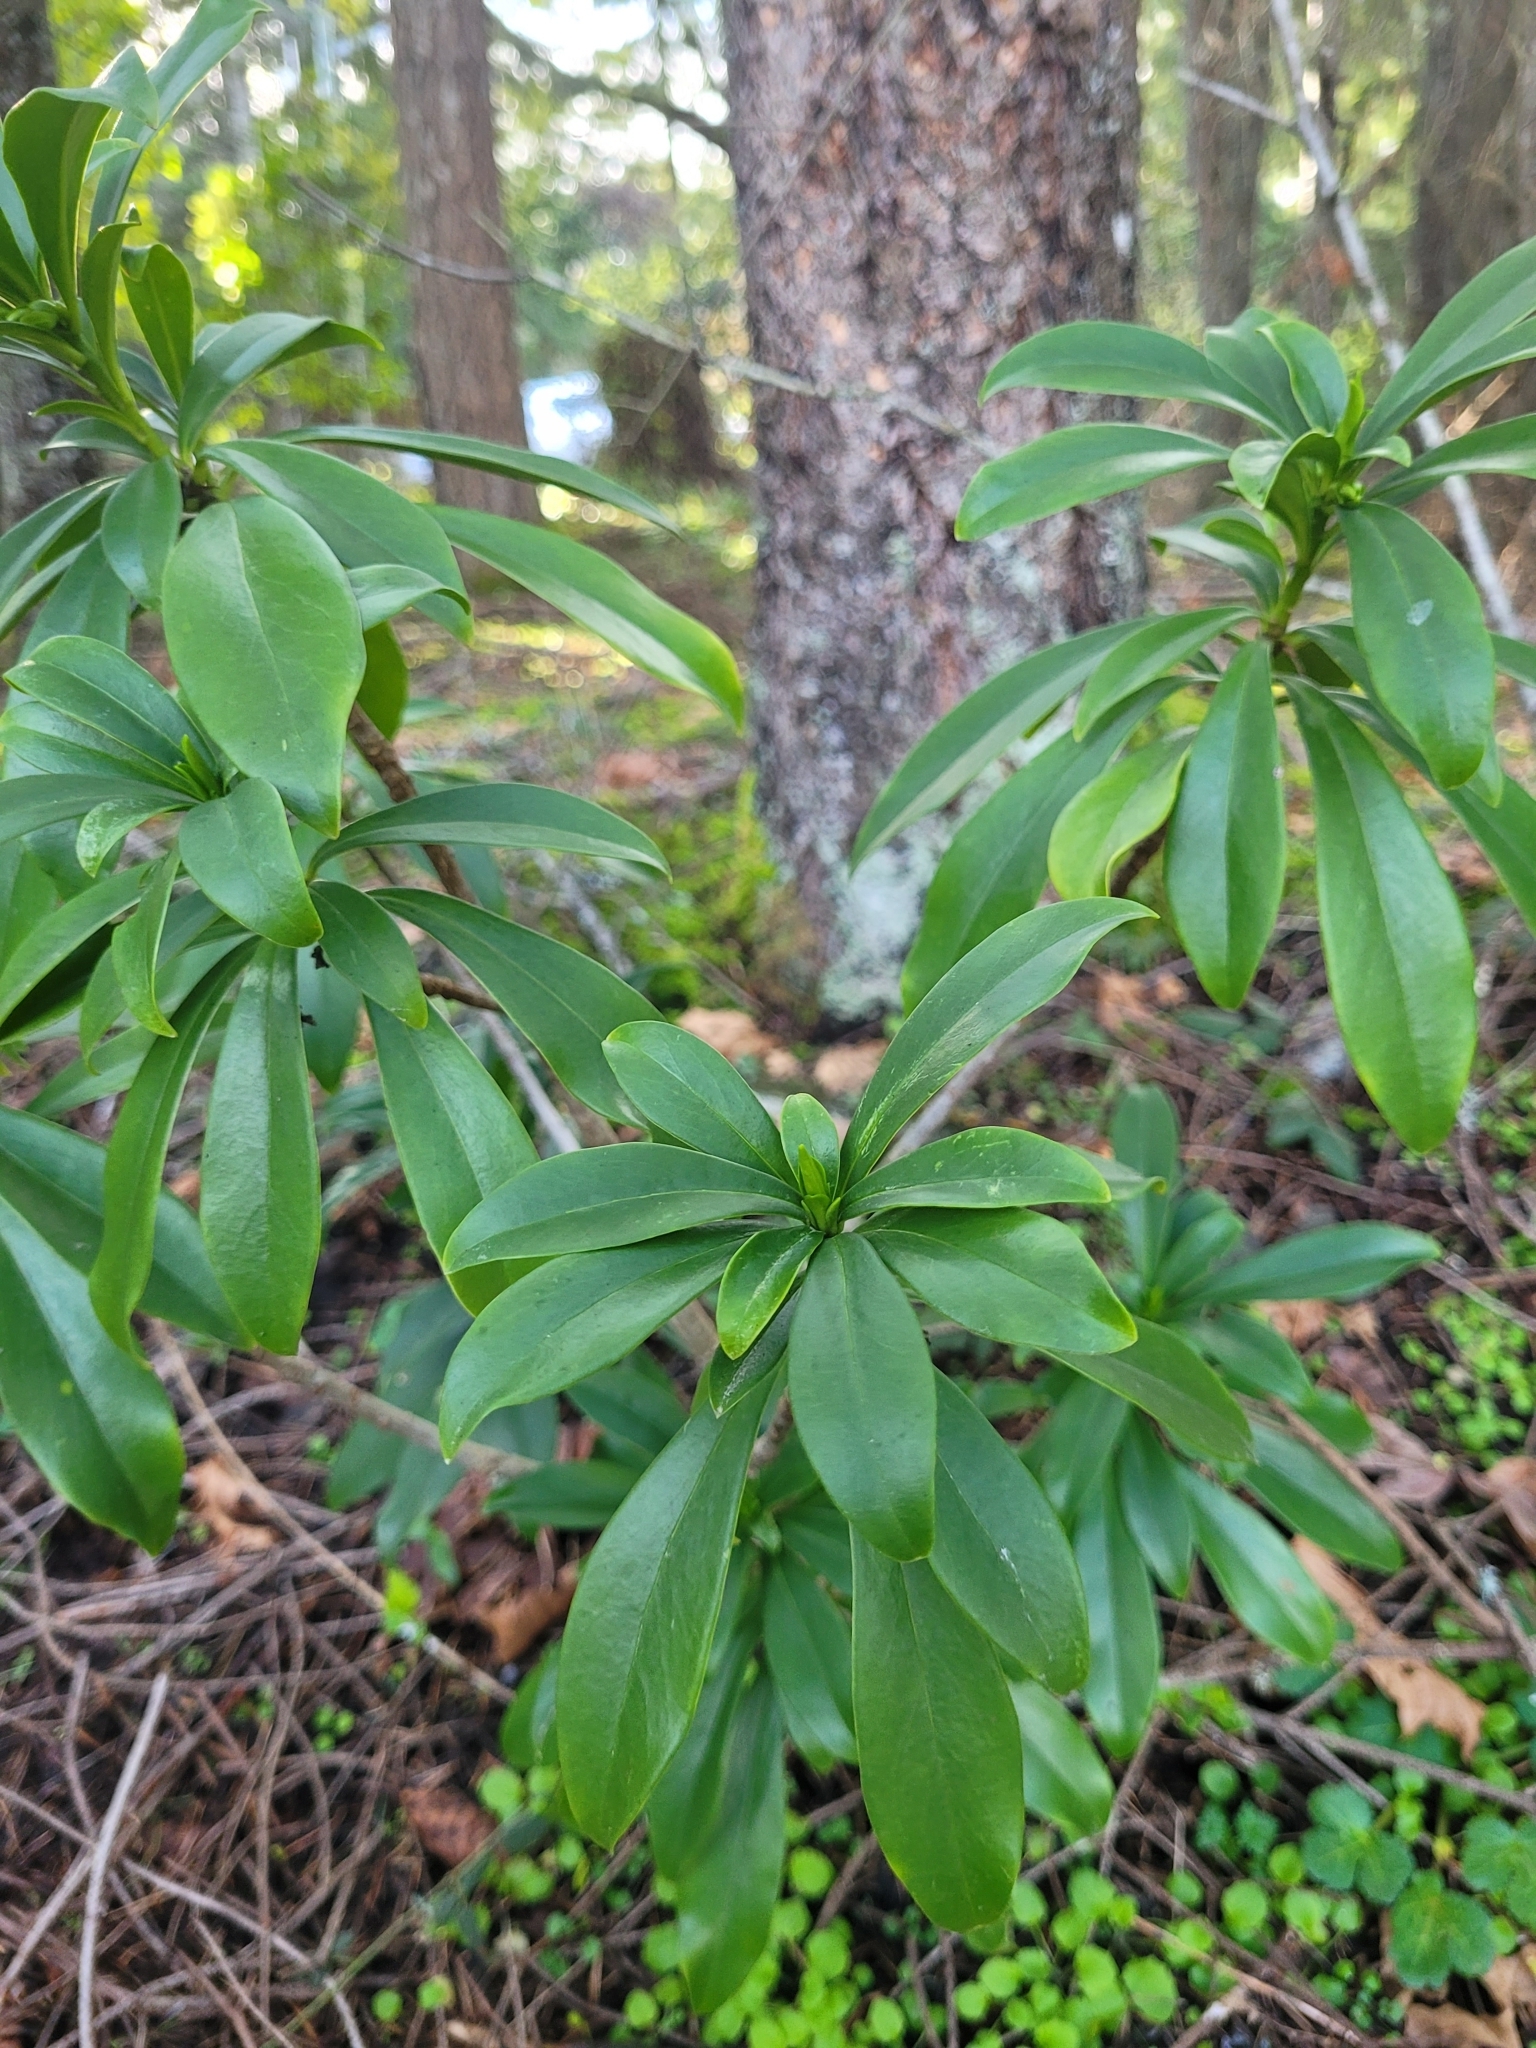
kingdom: Plantae
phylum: Tracheophyta
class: Magnoliopsida
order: Malvales
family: Thymelaeaceae
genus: Daphne
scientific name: Daphne laureola
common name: Spurge-laurel
